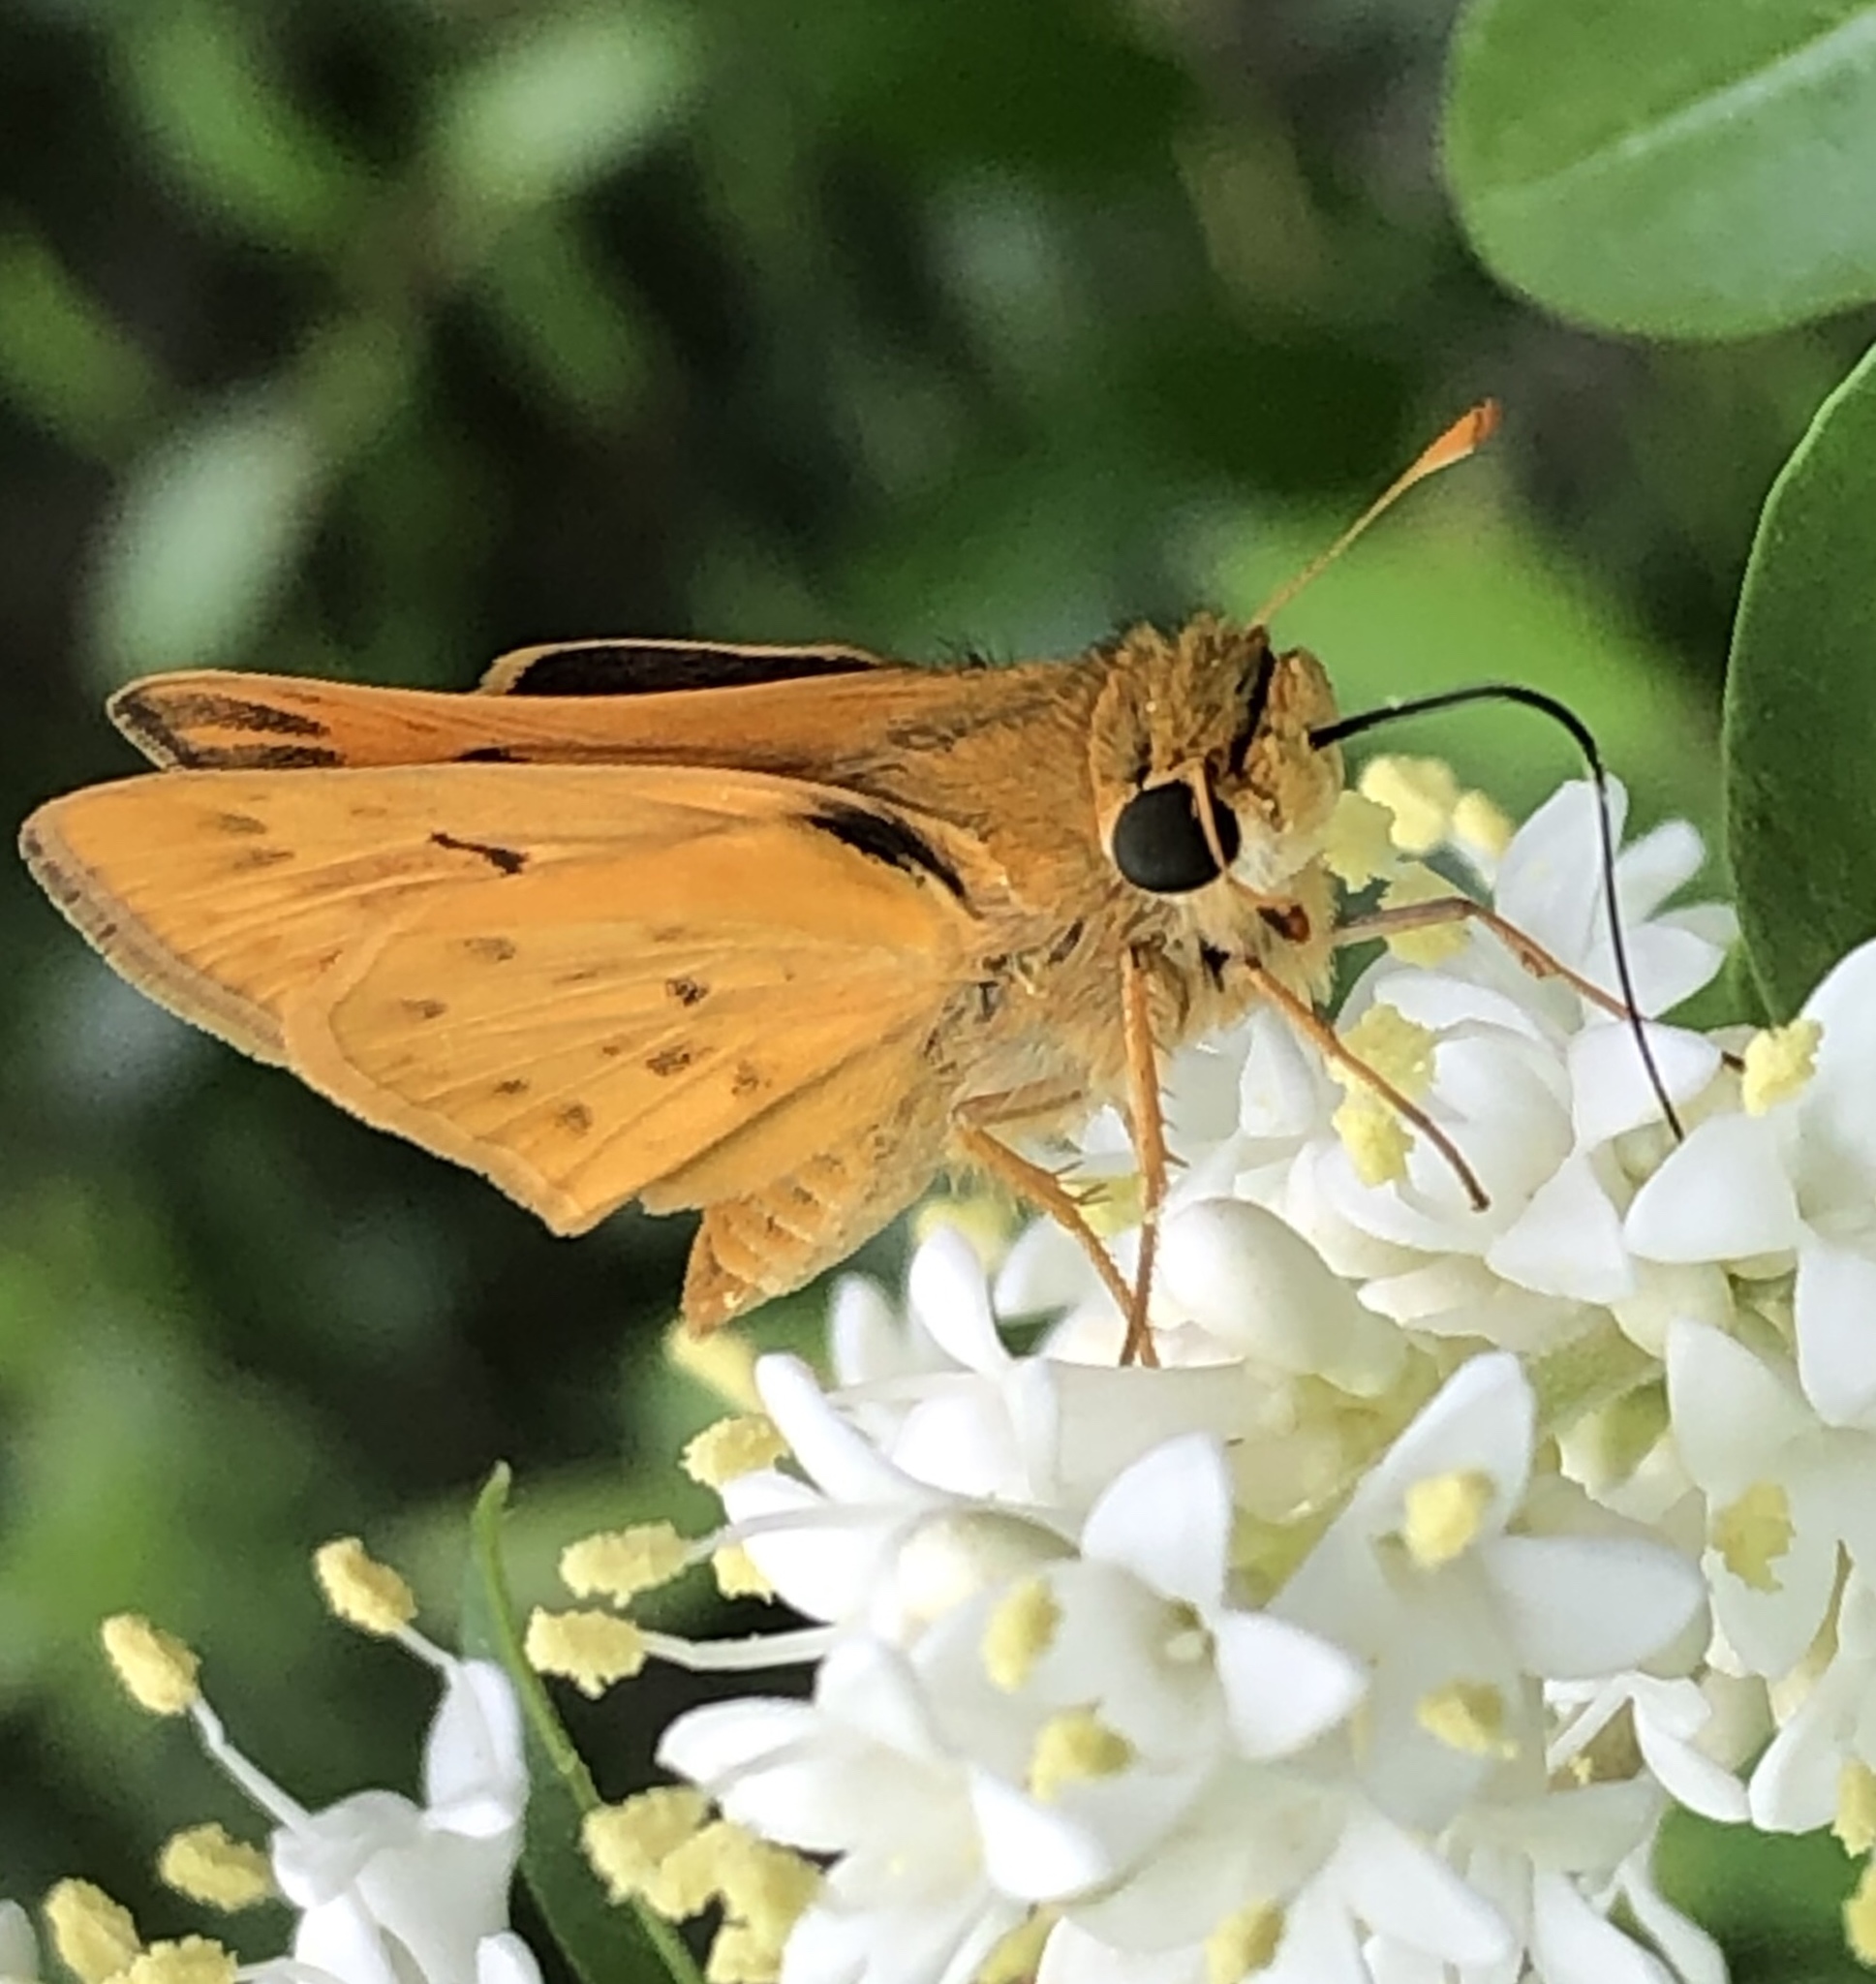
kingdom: Animalia
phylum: Arthropoda
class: Insecta
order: Lepidoptera
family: Hesperiidae
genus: Hylephila
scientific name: Hylephila phyleus
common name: Fiery skipper
